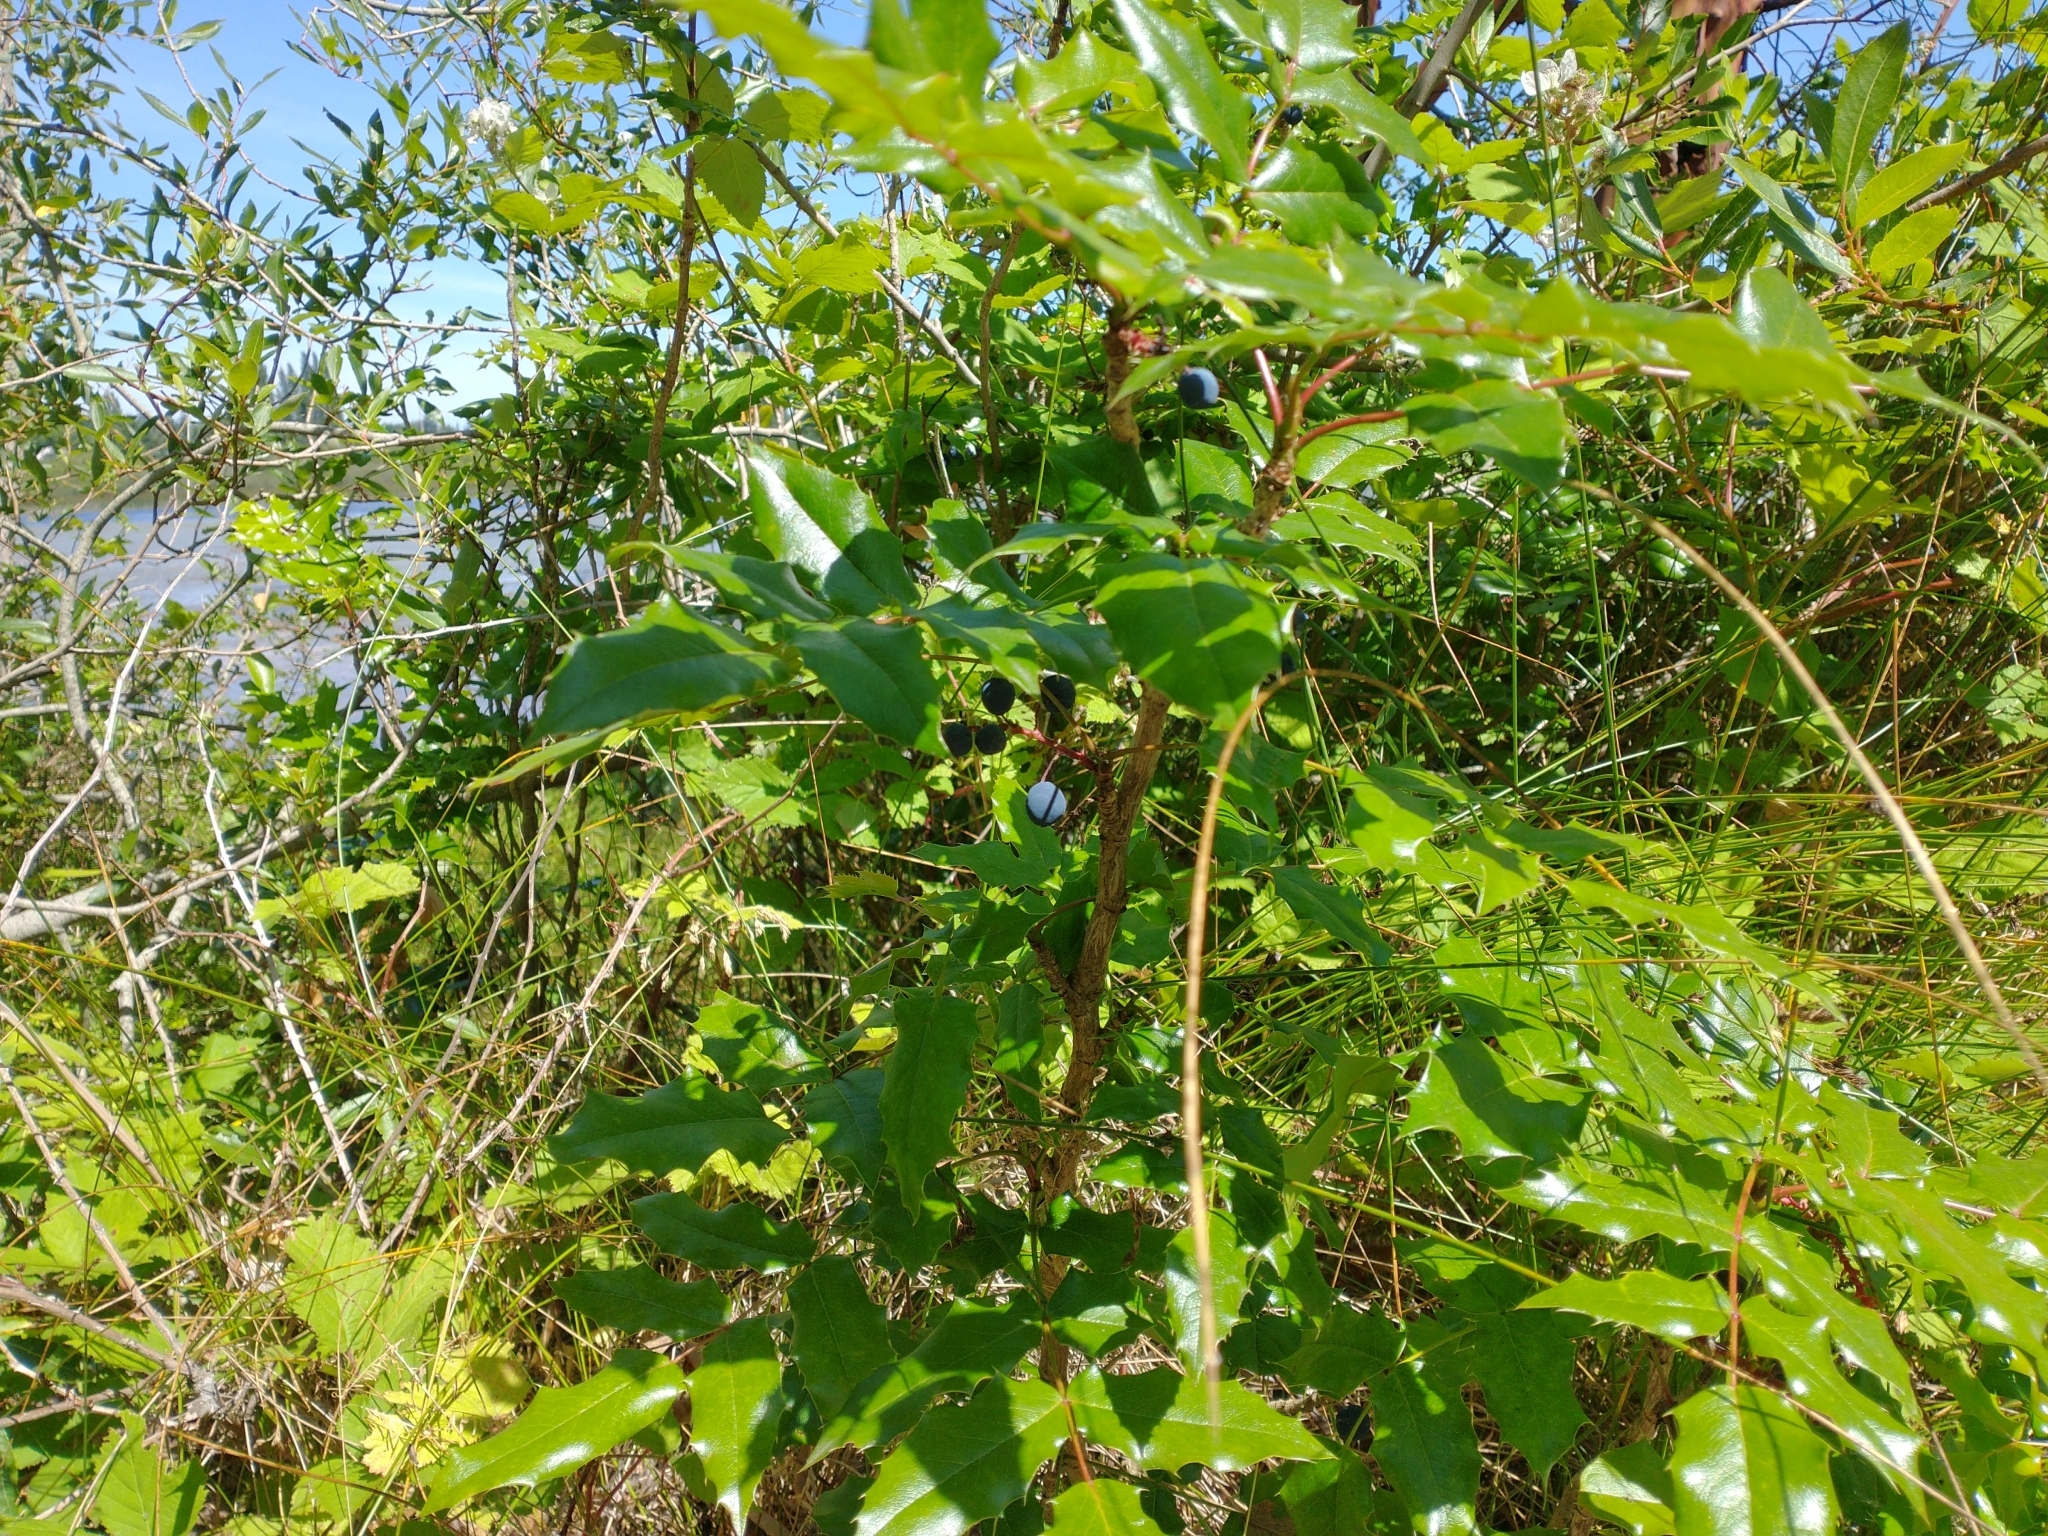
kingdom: Plantae
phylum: Tracheophyta
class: Magnoliopsida
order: Ranunculales
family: Berberidaceae
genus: Mahonia
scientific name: Mahonia aquifolium
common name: Oregon-grape
